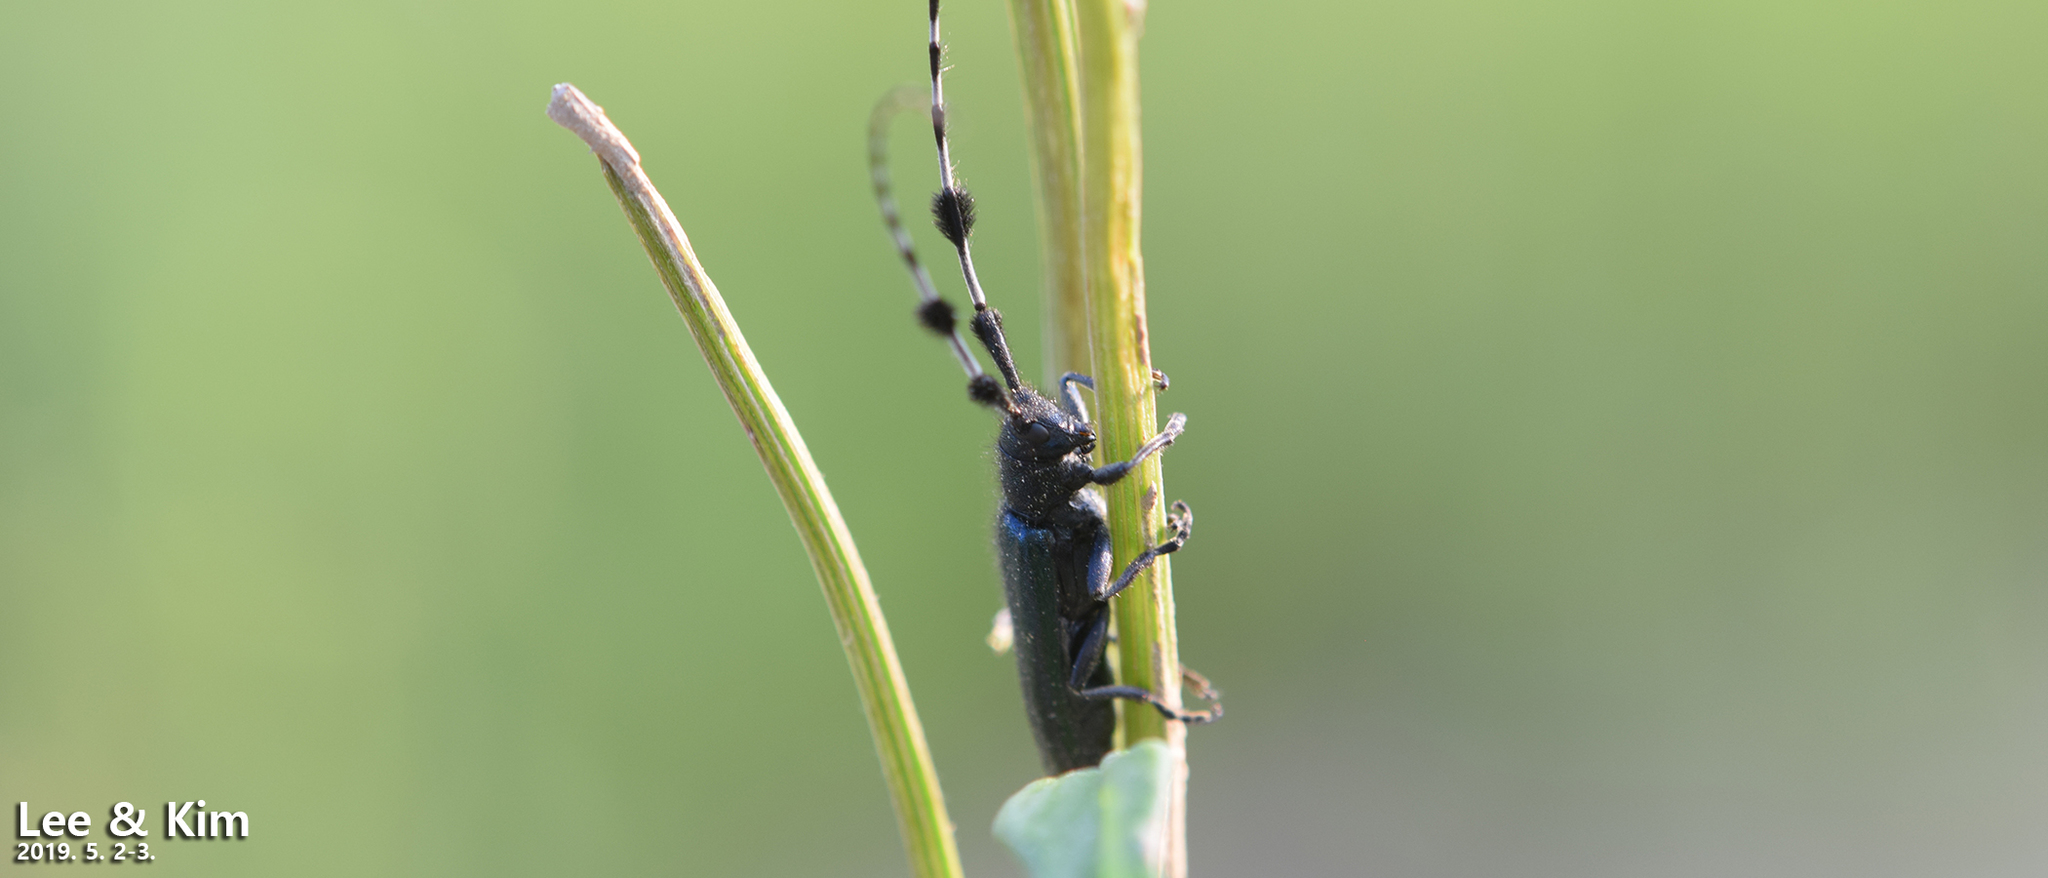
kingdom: Animalia
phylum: Arthropoda
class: Insecta
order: Coleoptera
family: Cerambycidae
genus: Agapanthia
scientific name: Agapanthia amurensis
